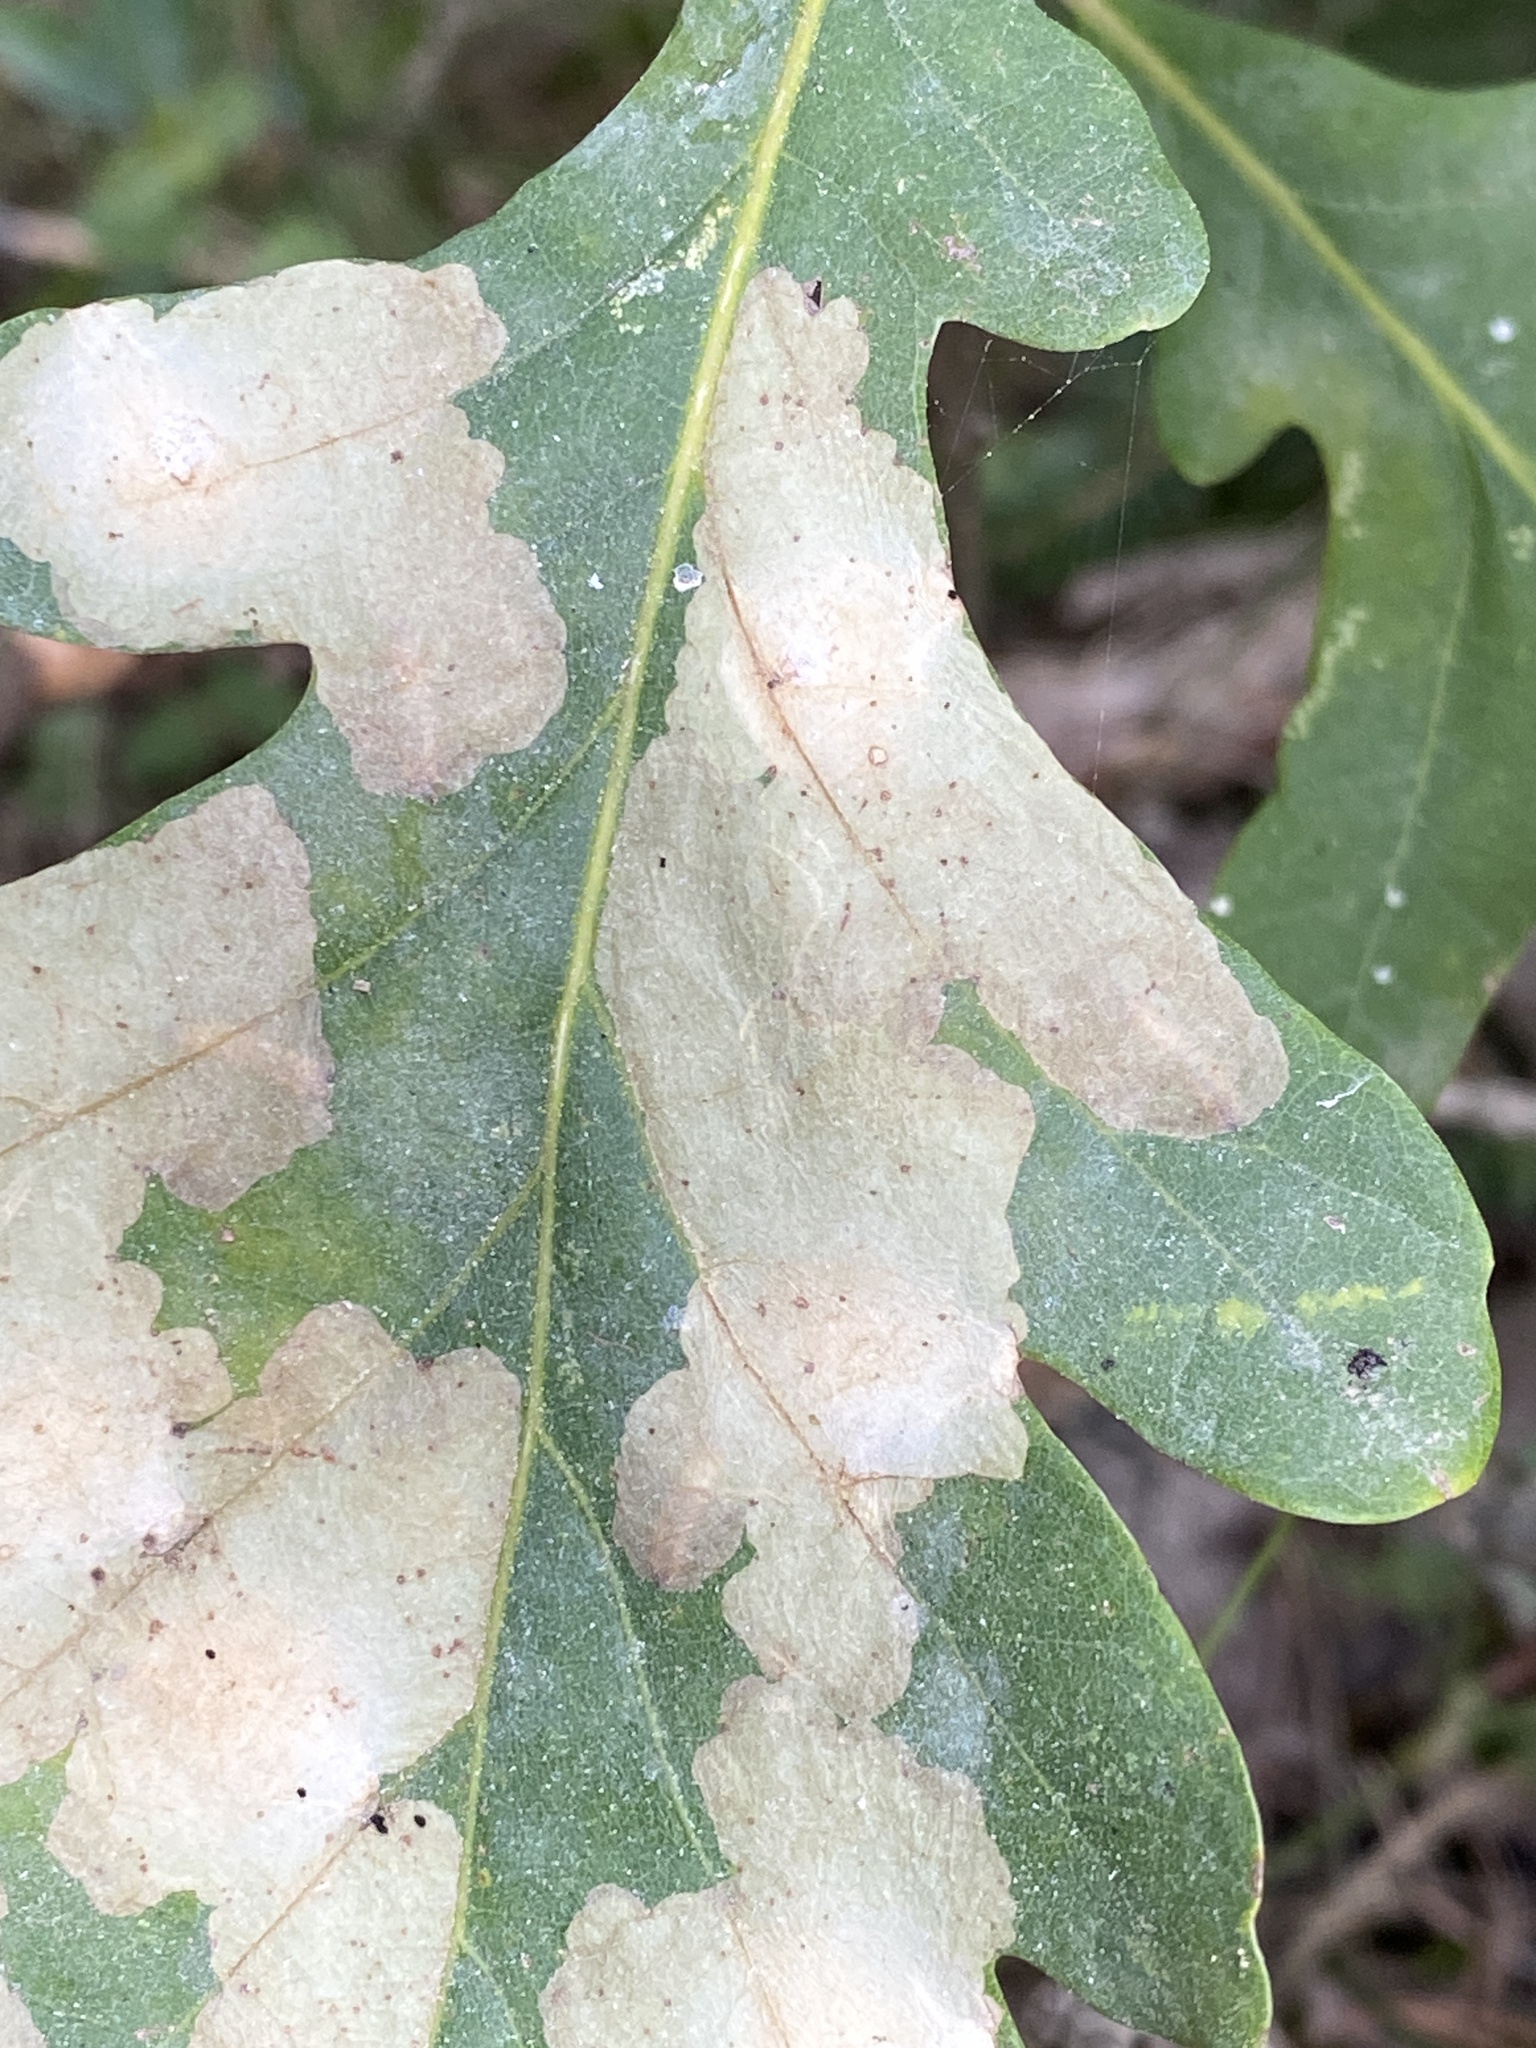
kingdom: Animalia
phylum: Arthropoda
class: Insecta
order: Lepidoptera
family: Tischeriidae
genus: Tischeria
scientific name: Tischeria ekebladella
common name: Oak carl
